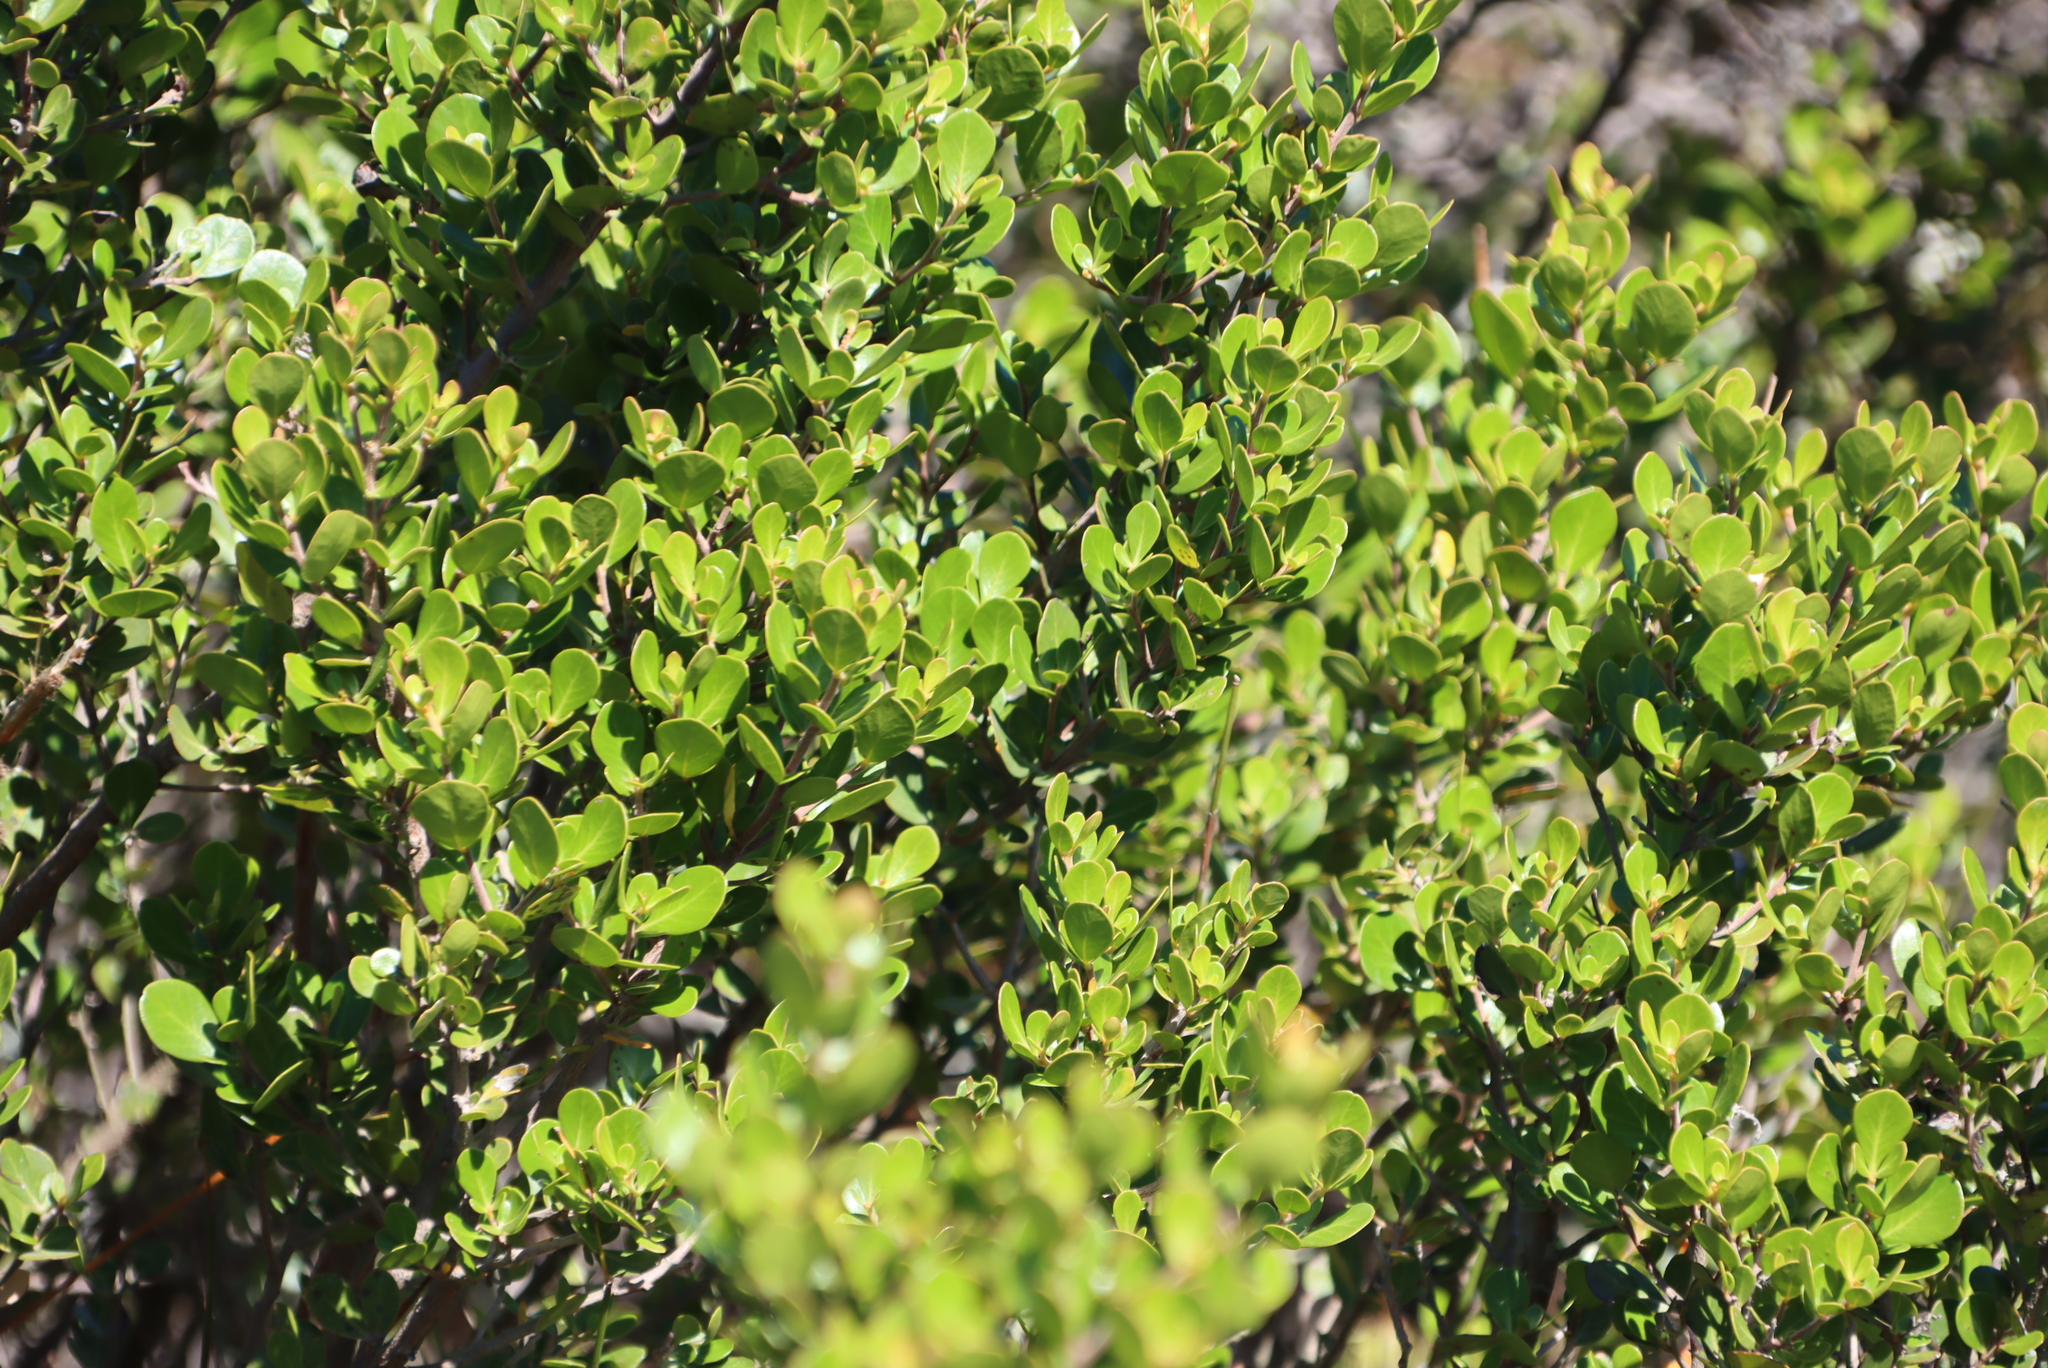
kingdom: Plantae
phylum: Tracheophyta
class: Magnoliopsida
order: Sapindales
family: Anacardiaceae
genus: Searsia
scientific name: Searsia lucida
